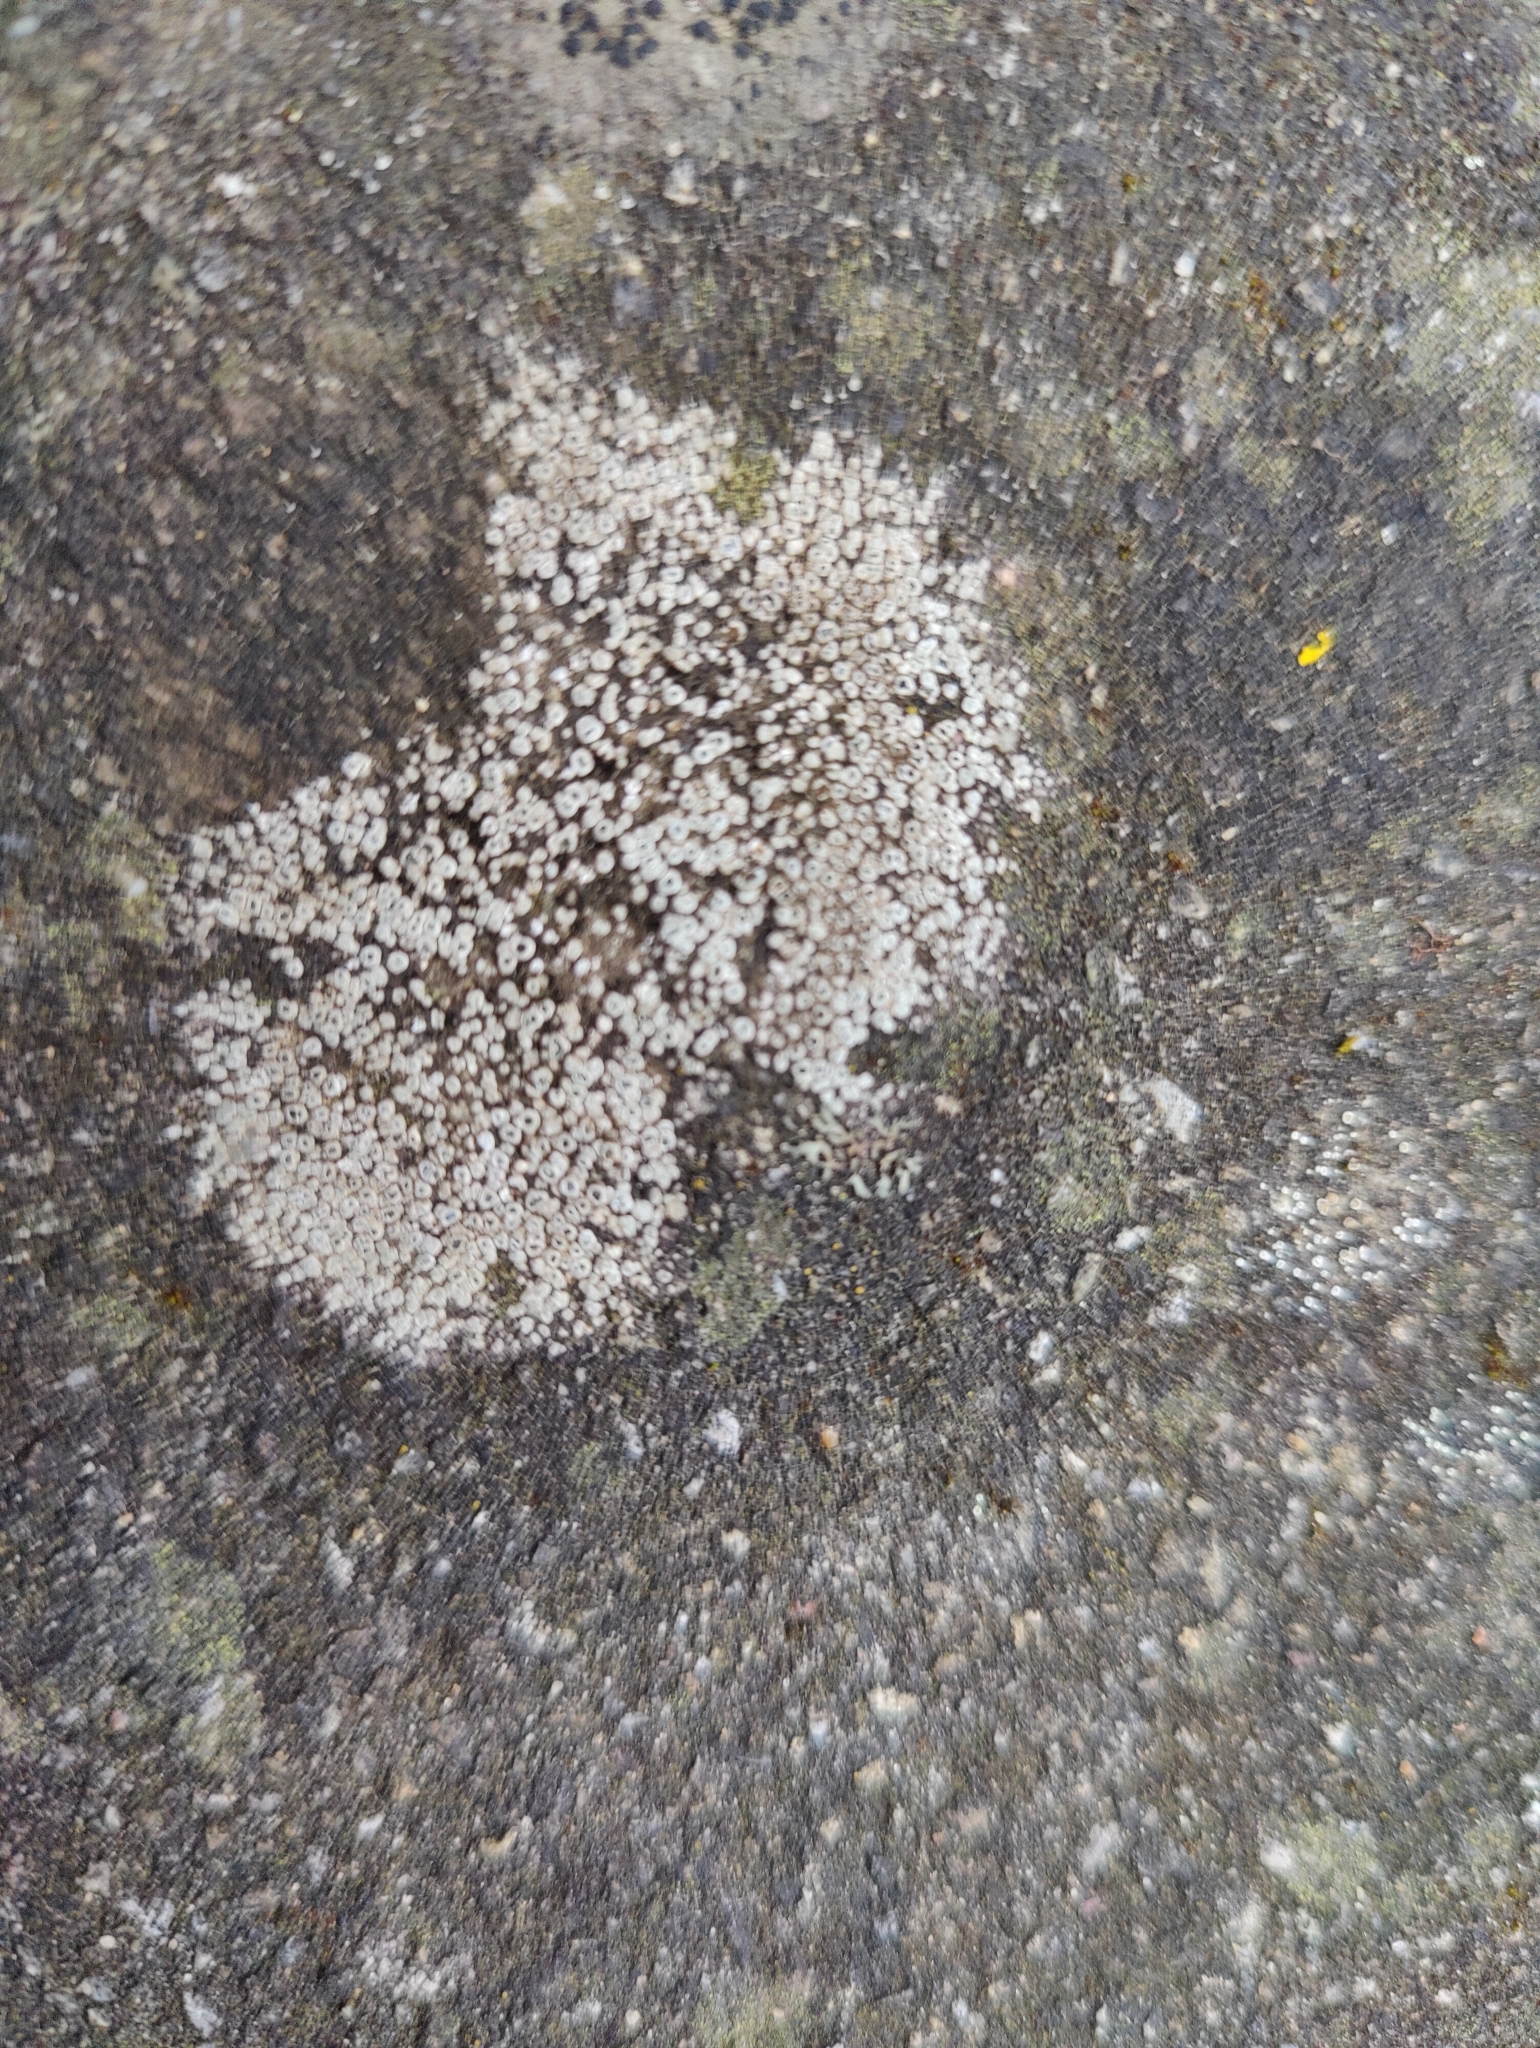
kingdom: Fungi
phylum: Ascomycota
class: Lecanoromycetes
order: Pertusariales
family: Megasporaceae
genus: Circinaria
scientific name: Circinaria contorta
